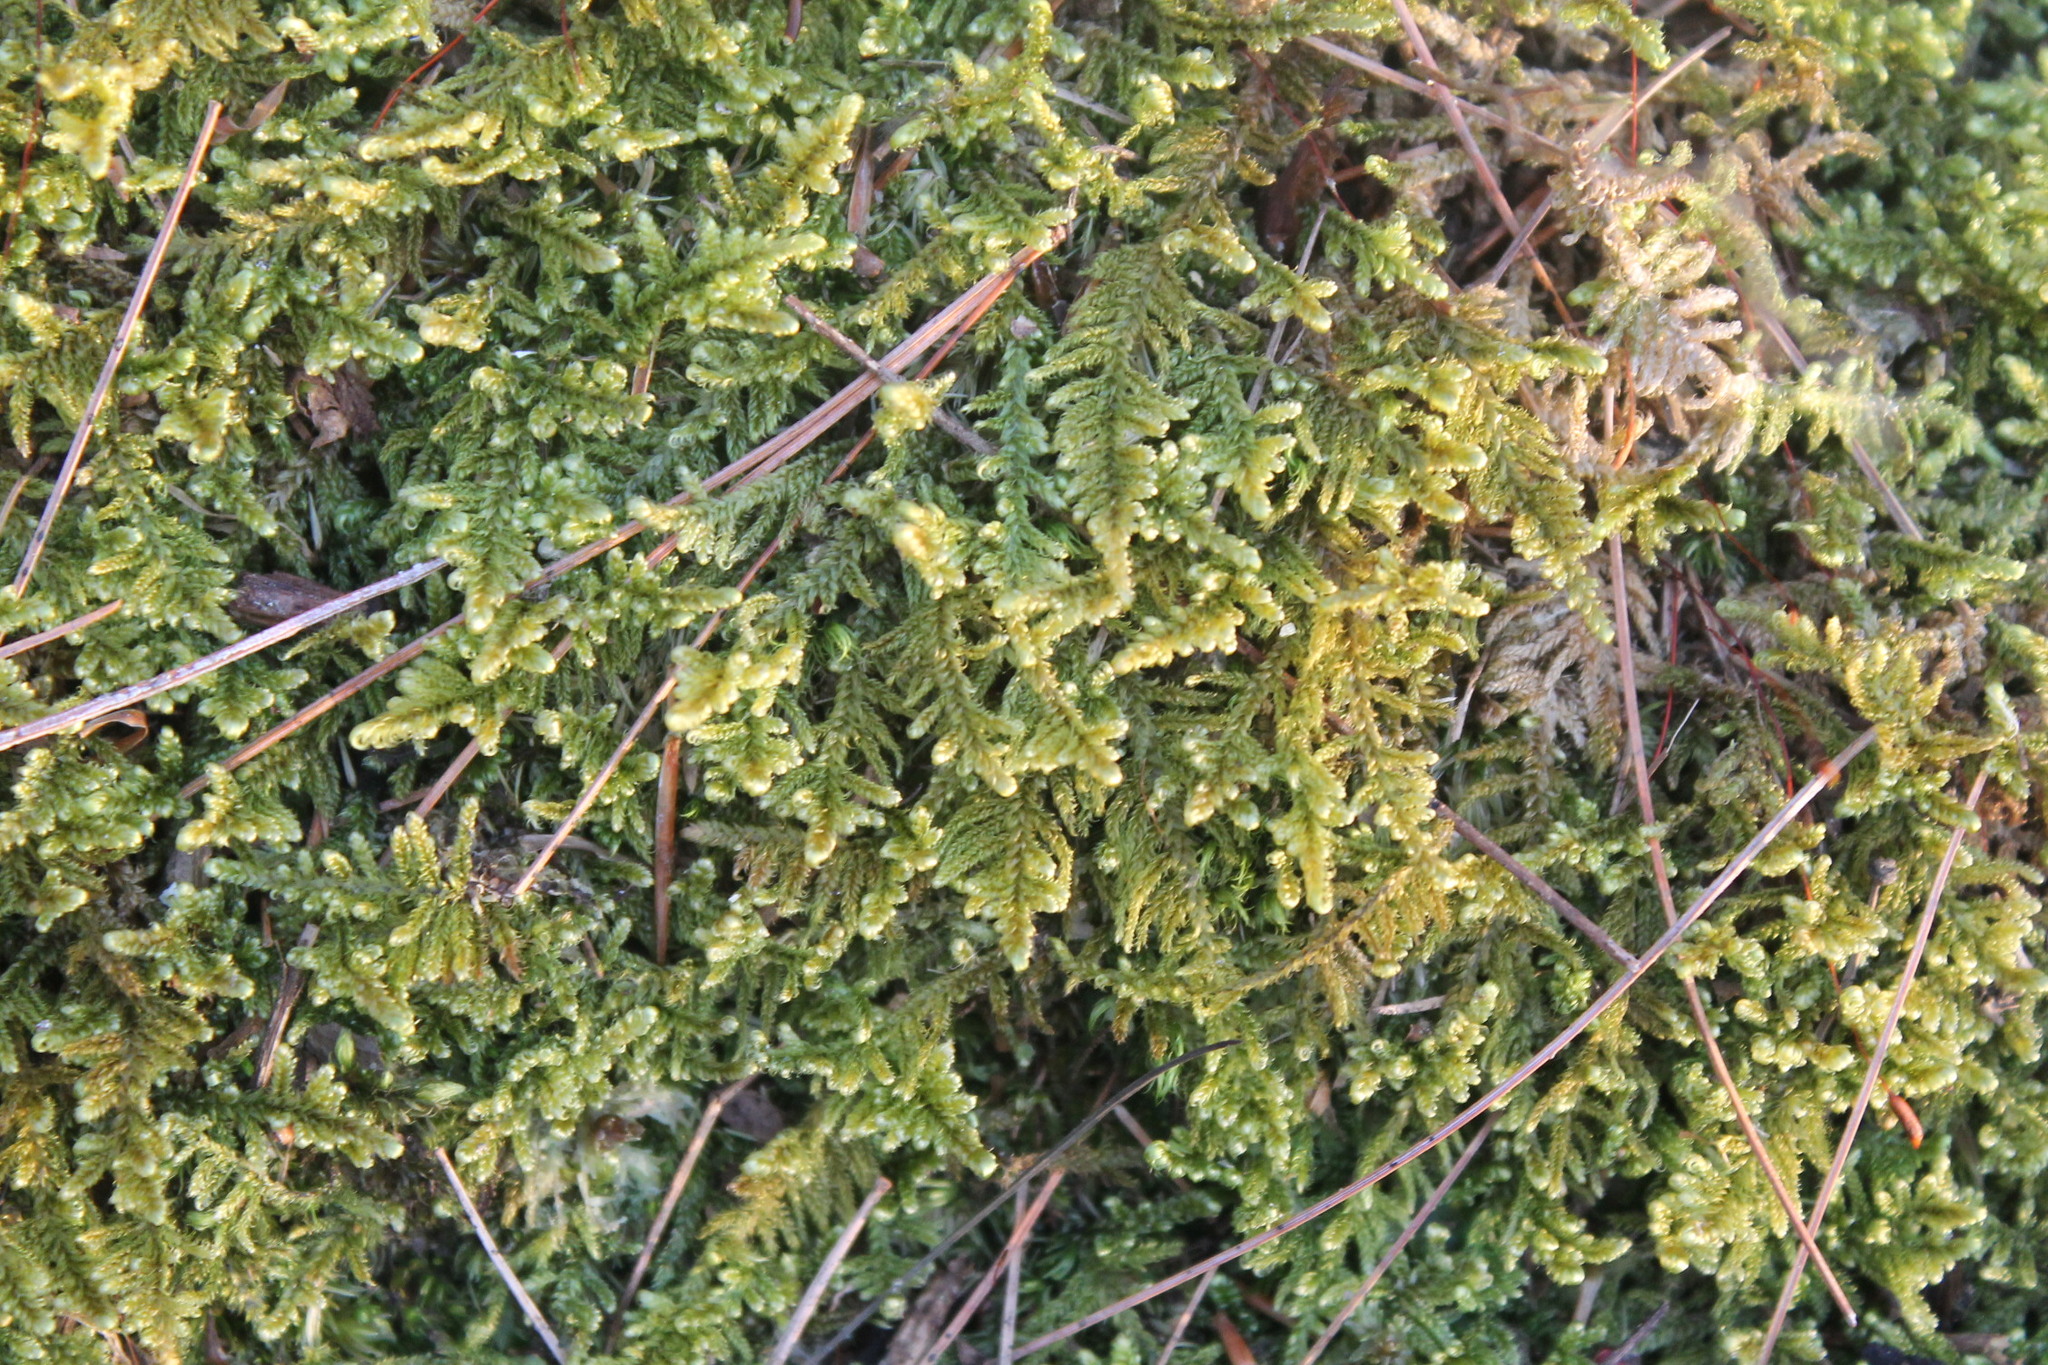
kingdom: Plantae
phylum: Bryophyta
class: Bryopsida
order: Hypnales
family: Callicladiaceae
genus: Callicladium
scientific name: Callicladium imponens
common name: Brocade moss
